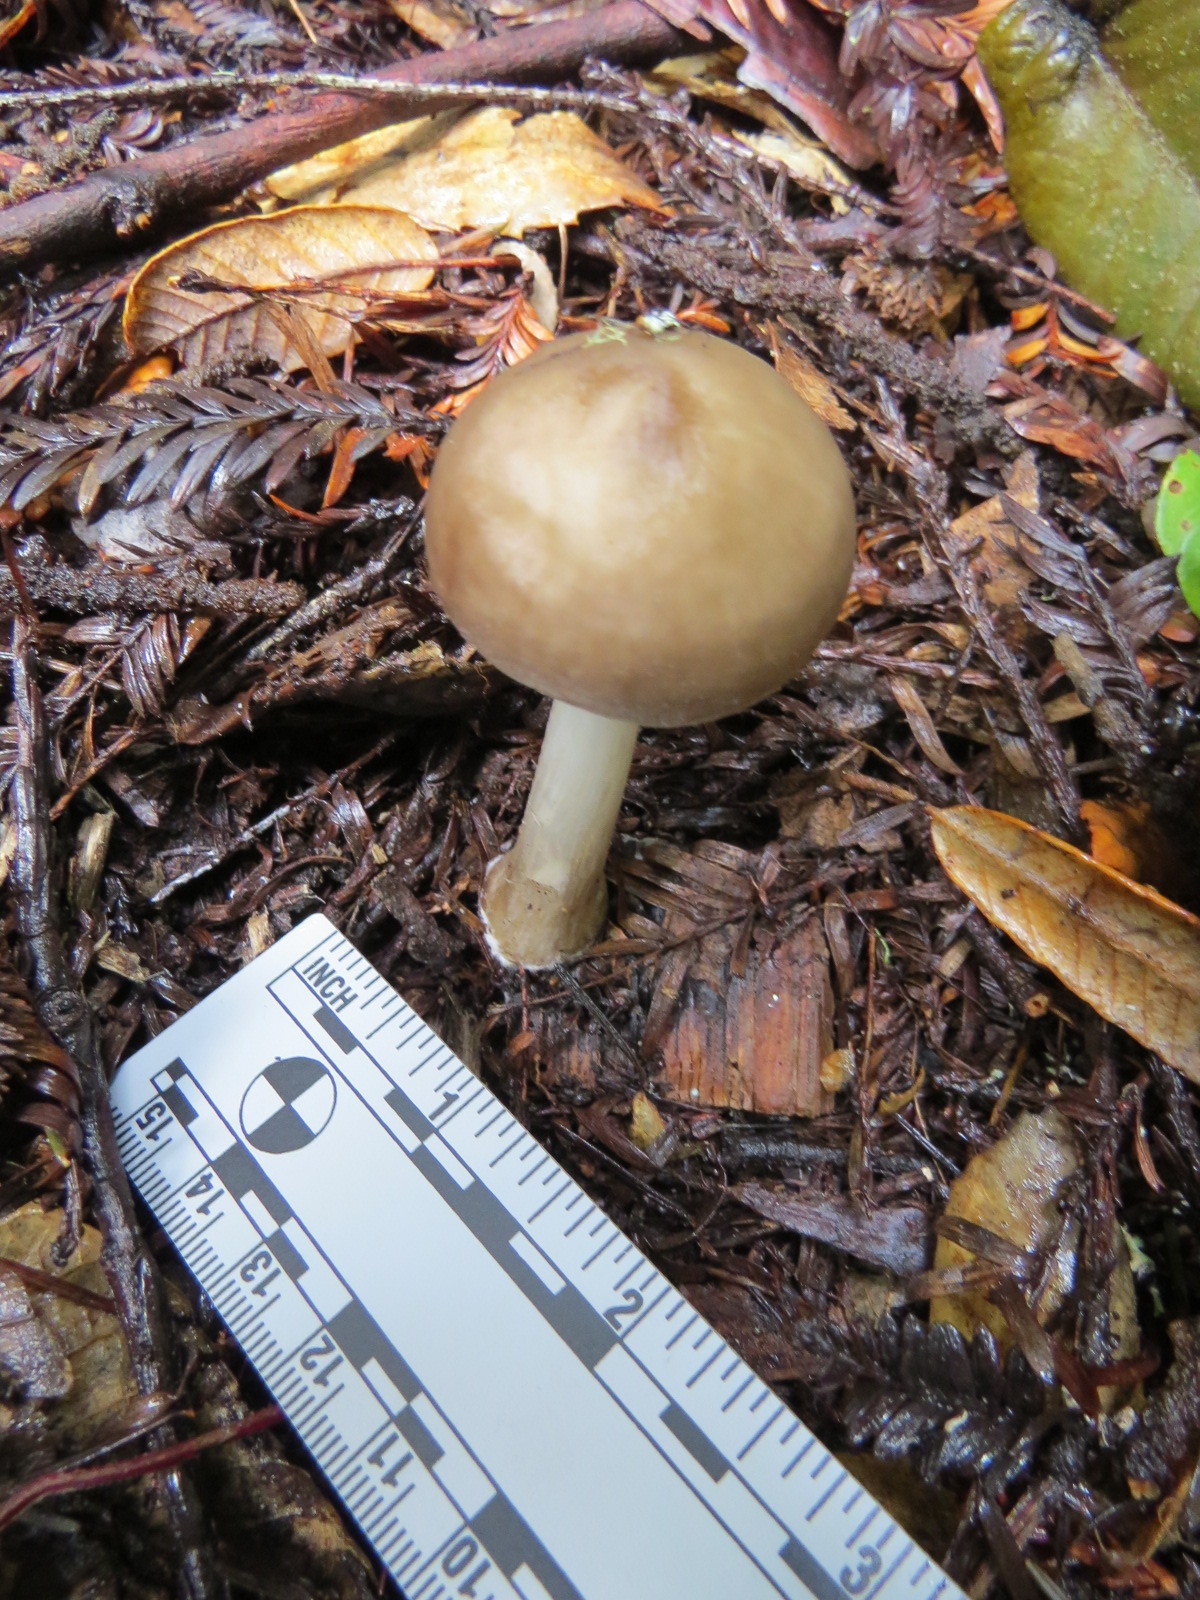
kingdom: Fungi
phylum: Basidiomycota
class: Agaricomycetes
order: Agaricales
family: Pluteaceae
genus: Pluteus
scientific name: Pluteus exilis
